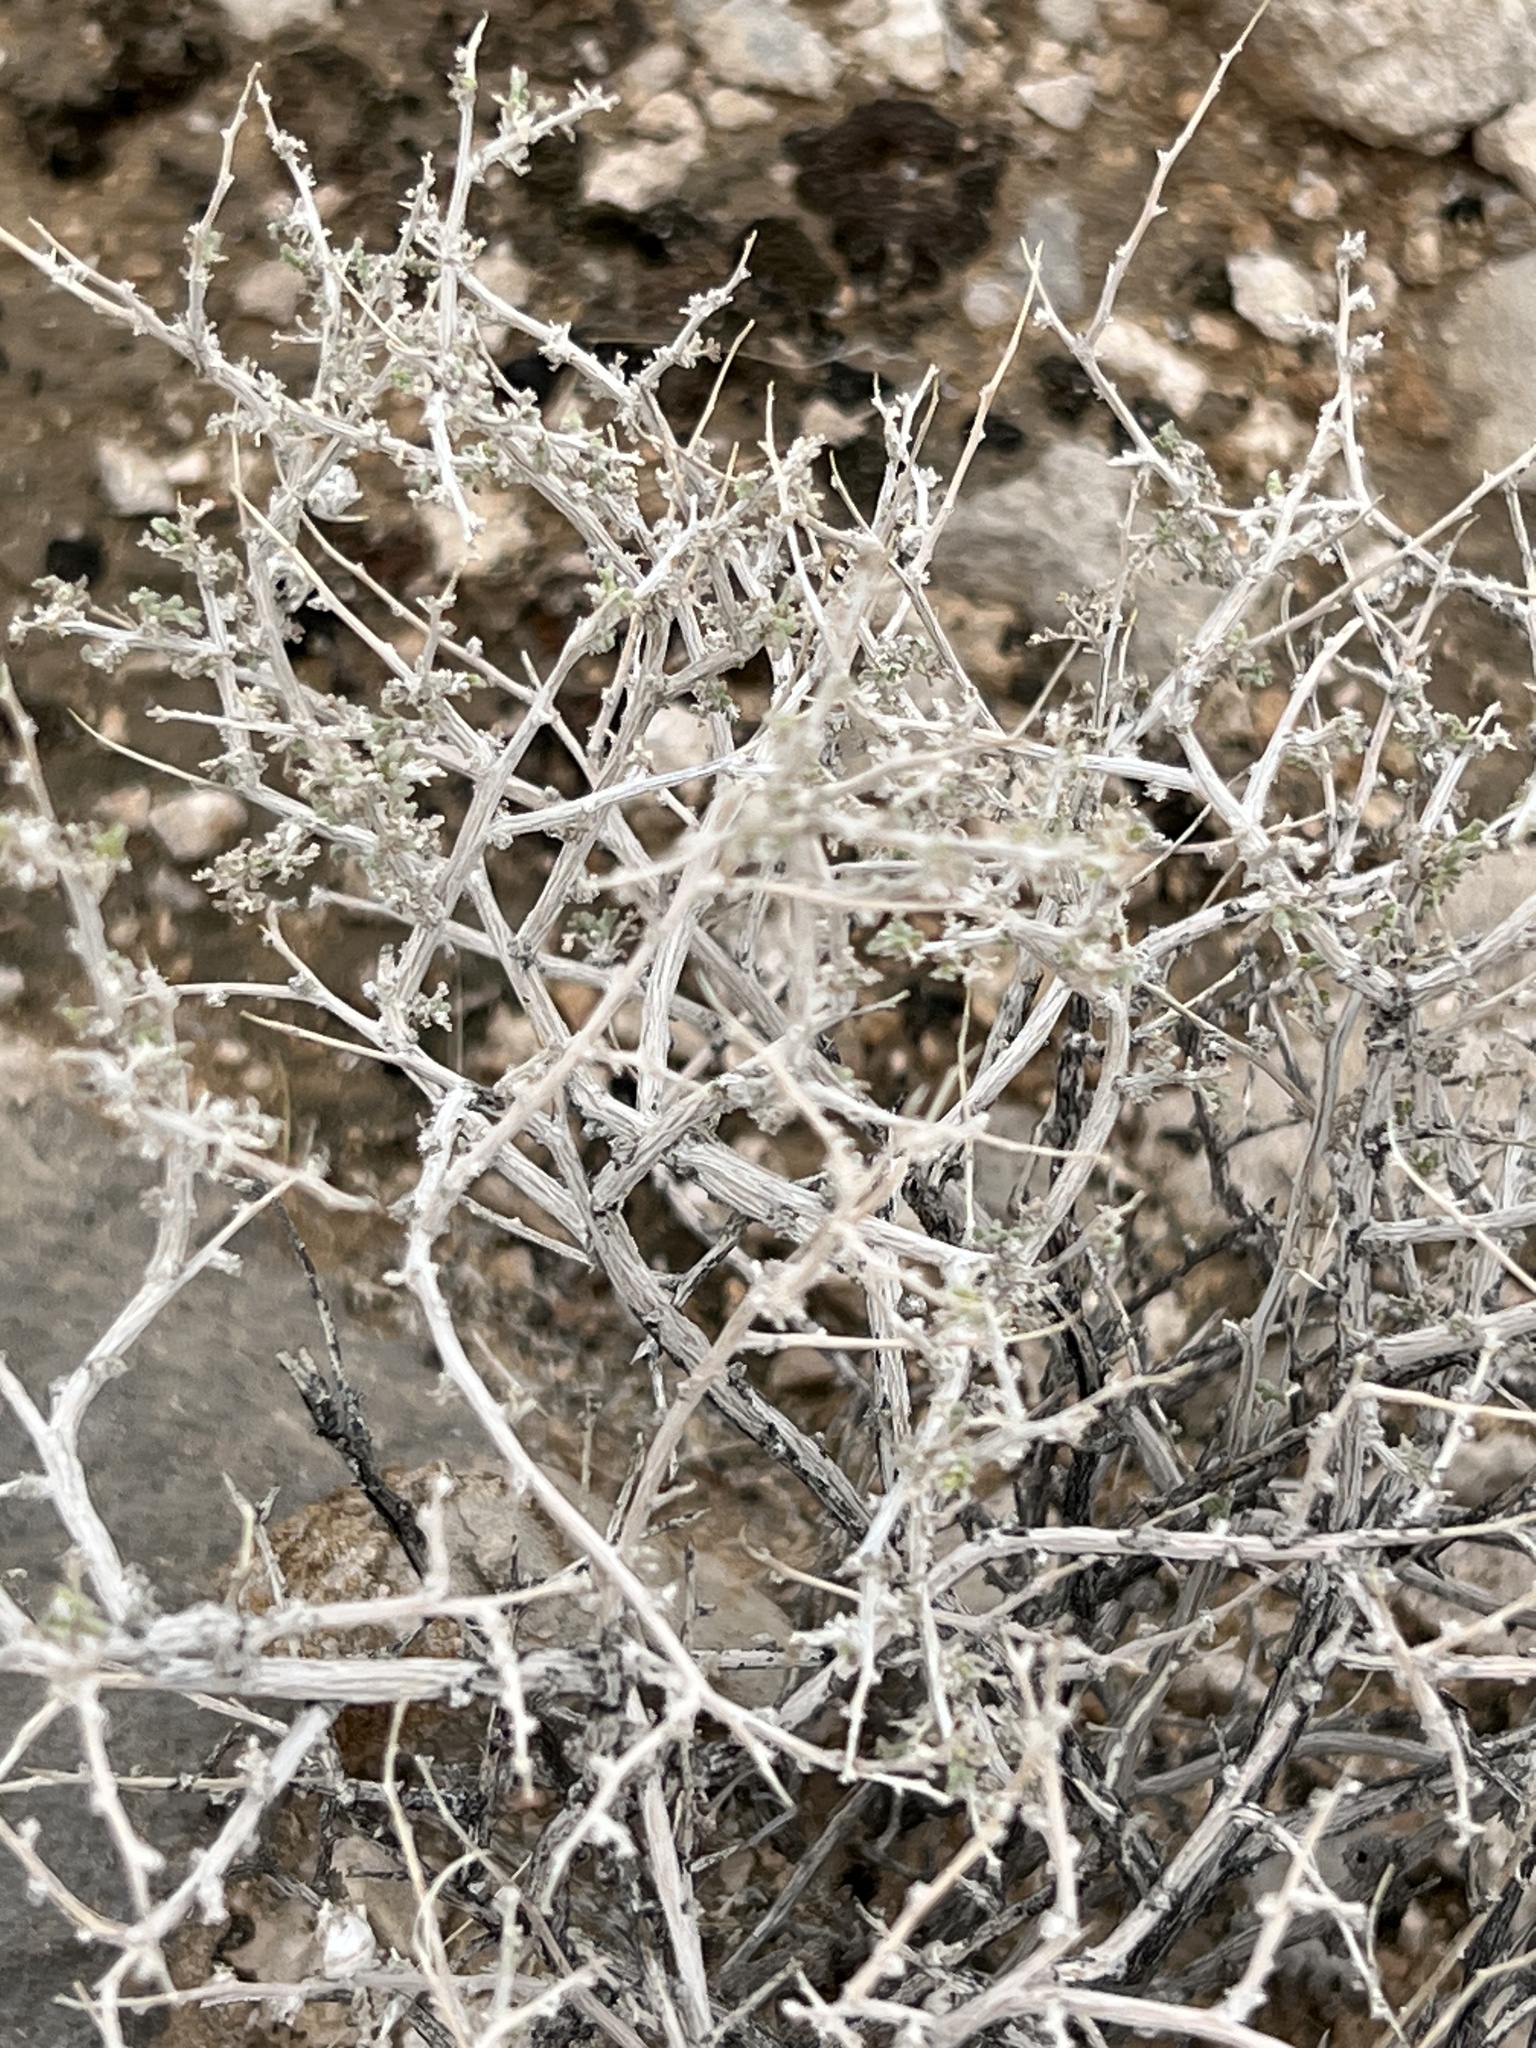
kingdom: Plantae
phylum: Tracheophyta
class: Magnoliopsida
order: Asterales
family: Asteraceae
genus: Ambrosia
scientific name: Ambrosia dumosa
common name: Bur-sage
